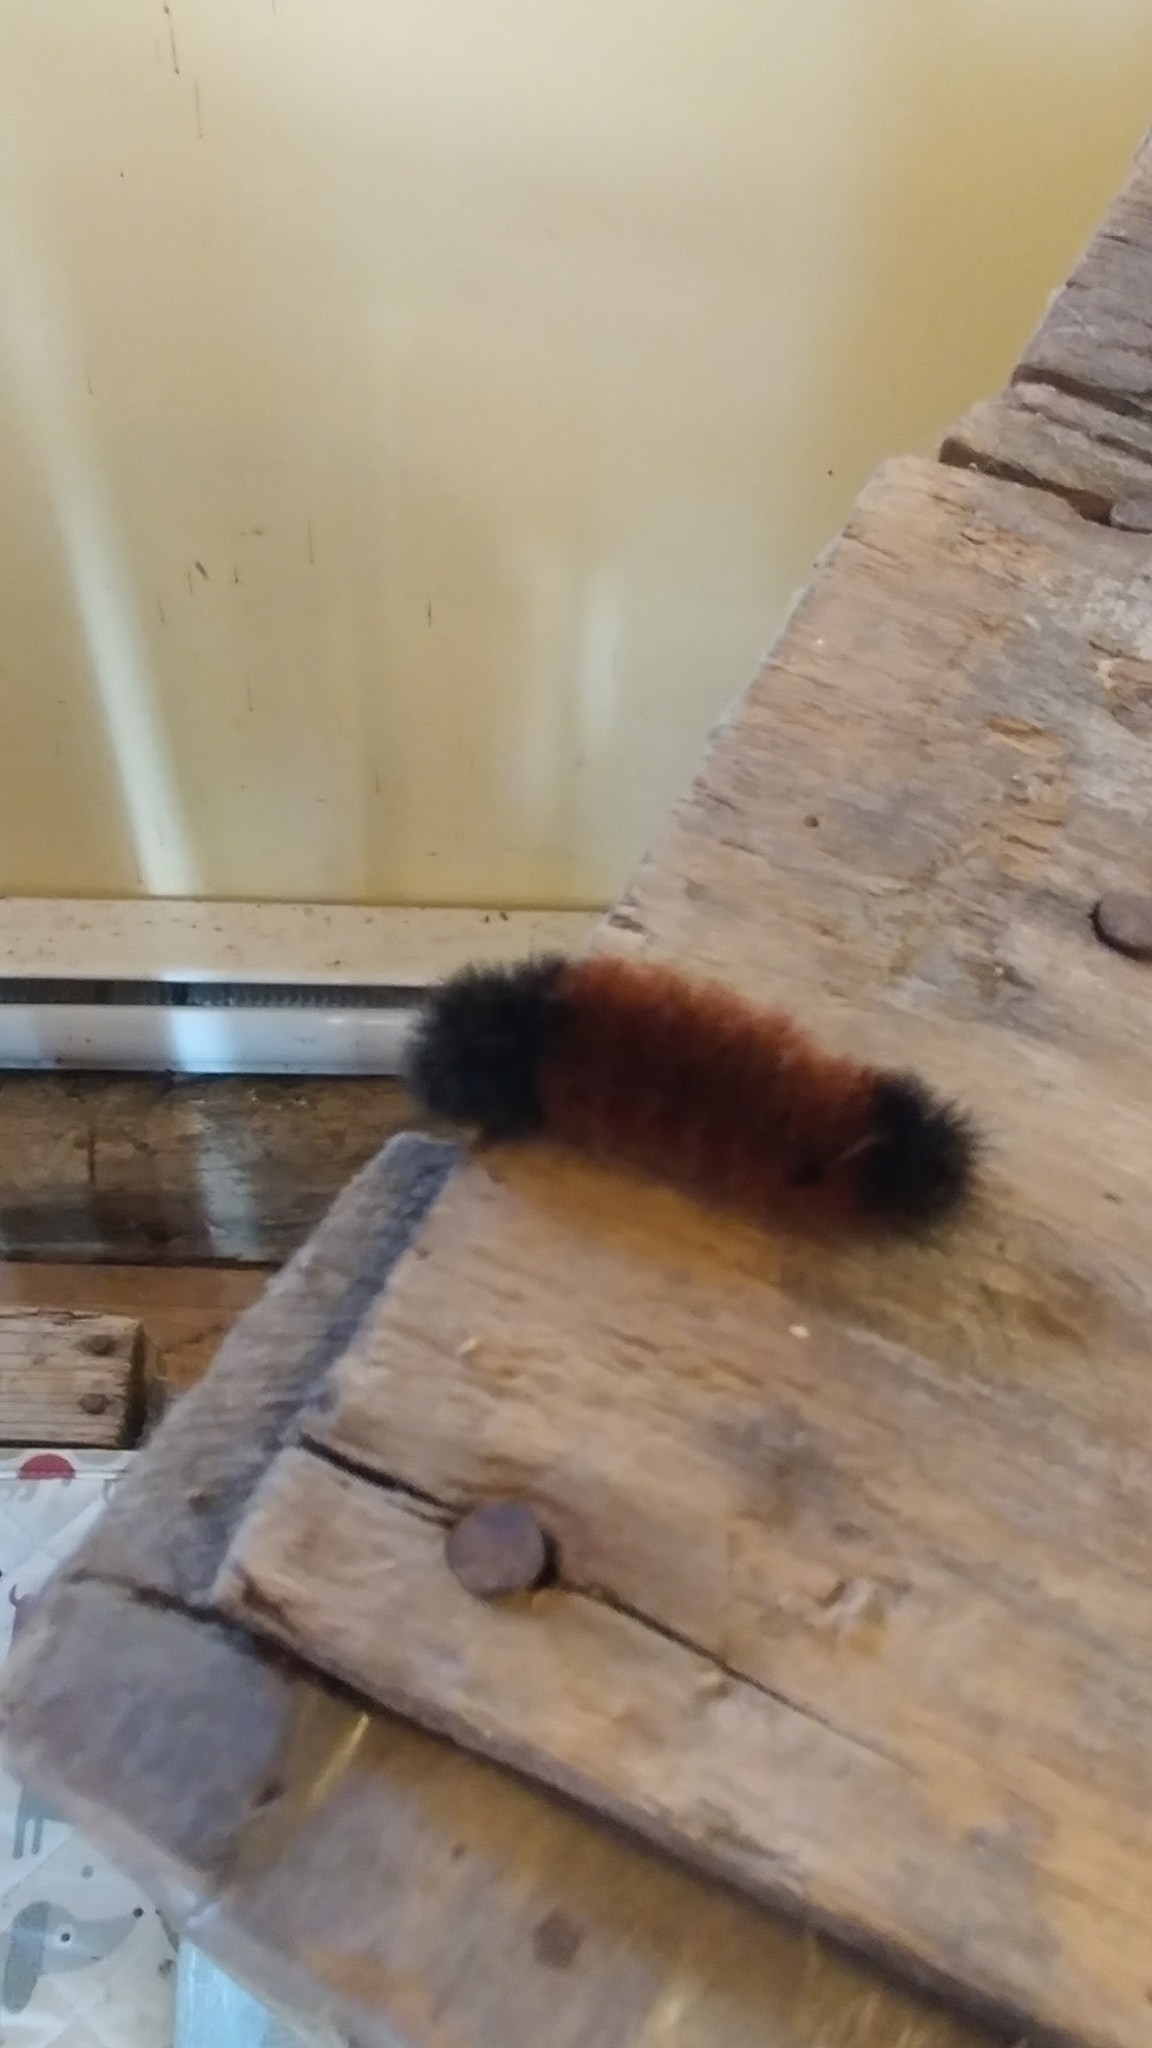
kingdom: Animalia
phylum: Arthropoda
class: Insecta
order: Lepidoptera
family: Erebidae
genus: Pyrrharctia
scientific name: Pyrrharctia isabella
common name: Isabella tiger moth
